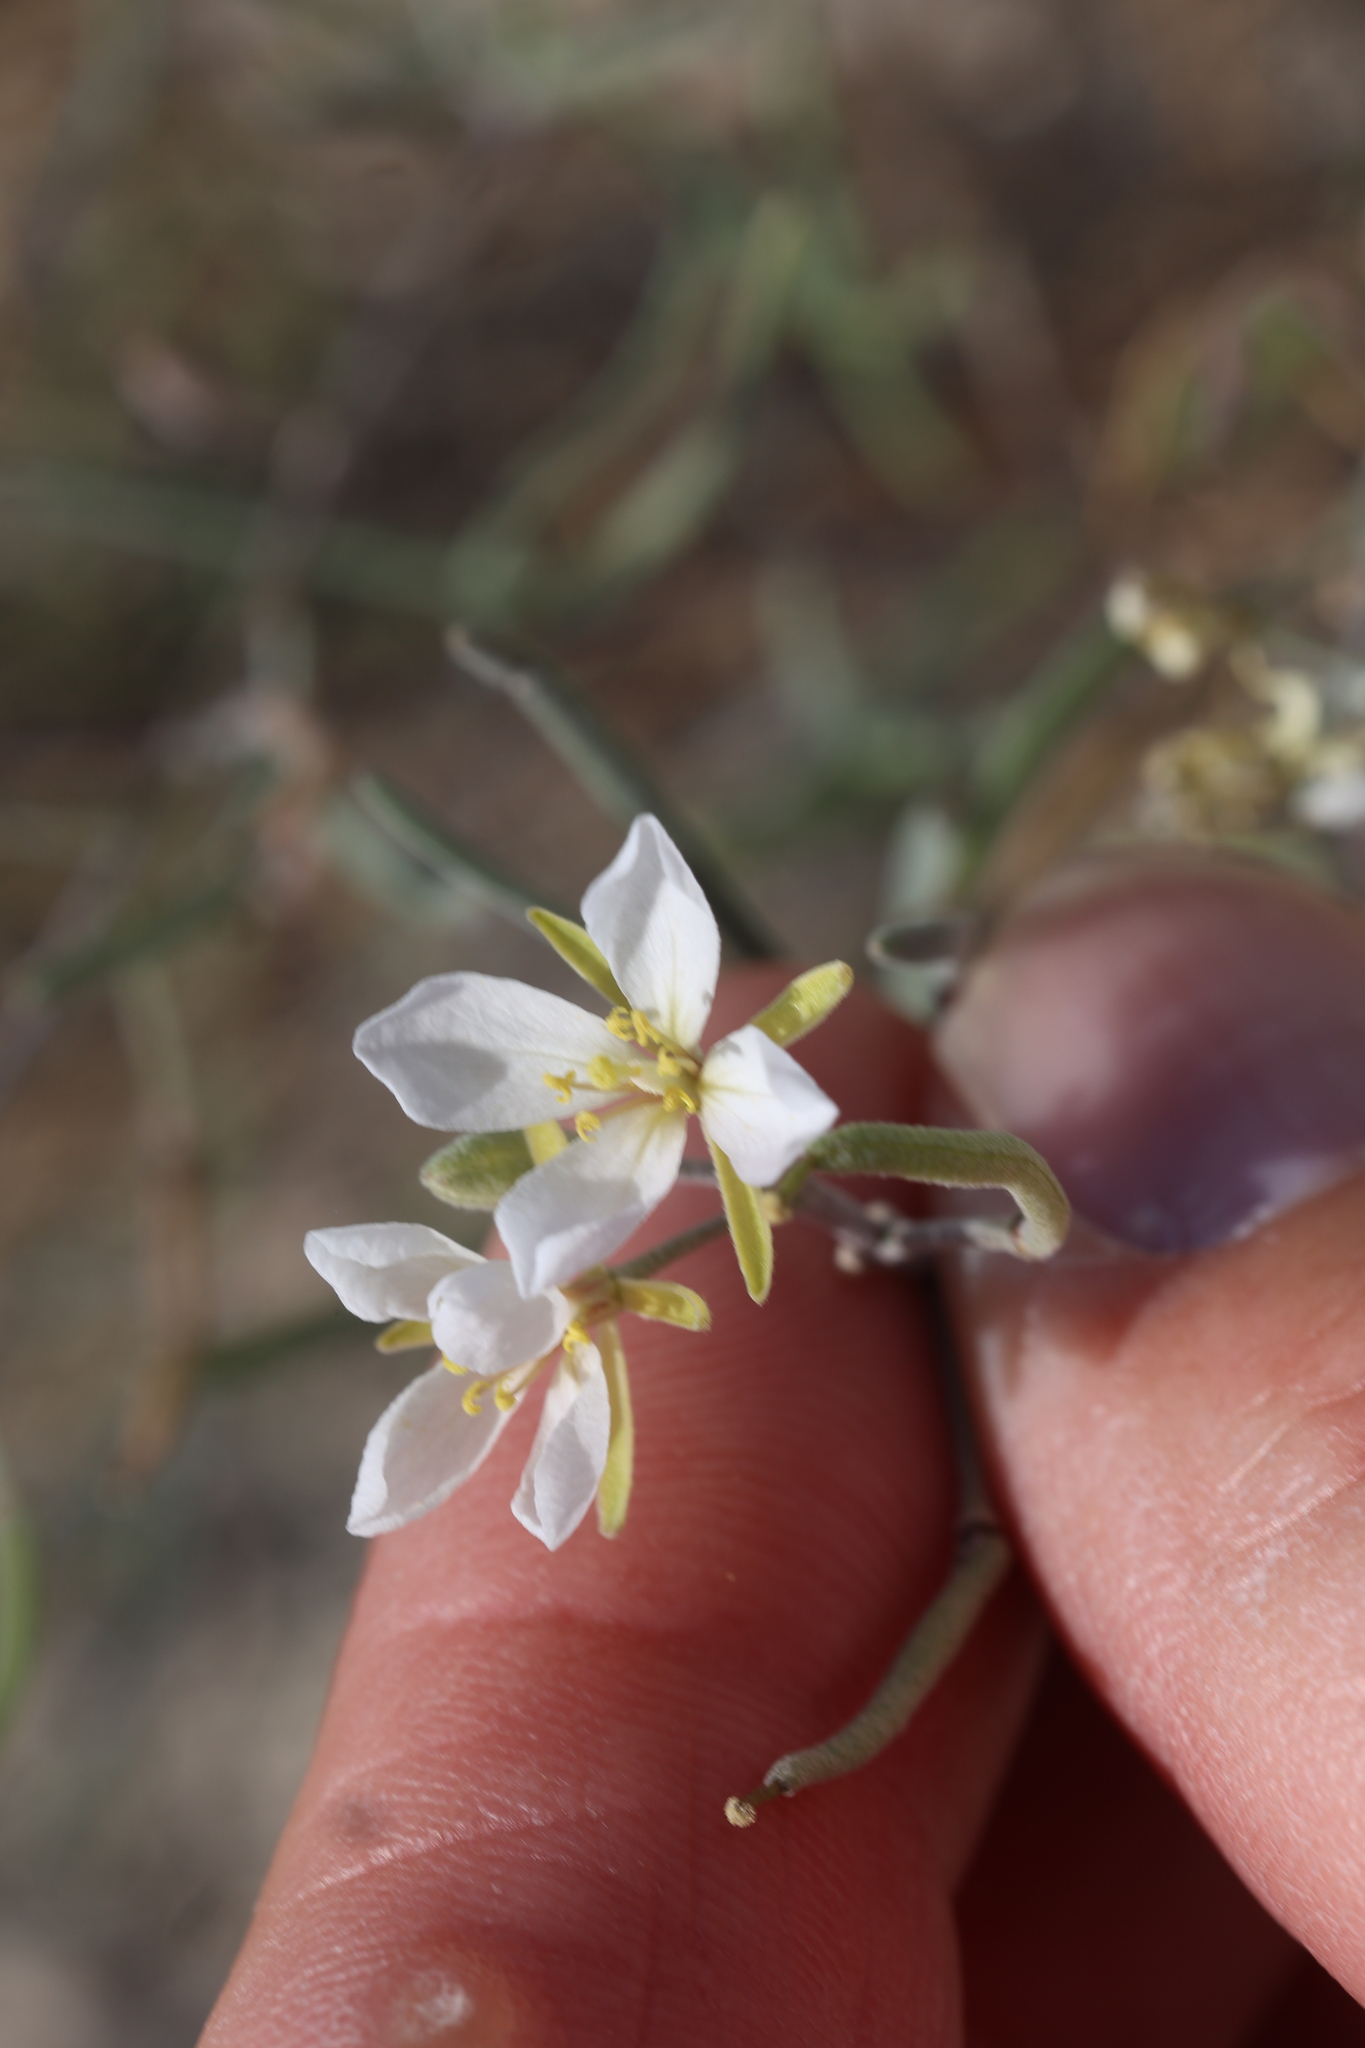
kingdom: Plantae
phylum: Tracheophyta
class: Magnoliopsida
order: Brassicales
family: Brassicaceae
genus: Nerisyrenia
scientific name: Nerisyrenia linearifolia
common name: White sands fan mustard
